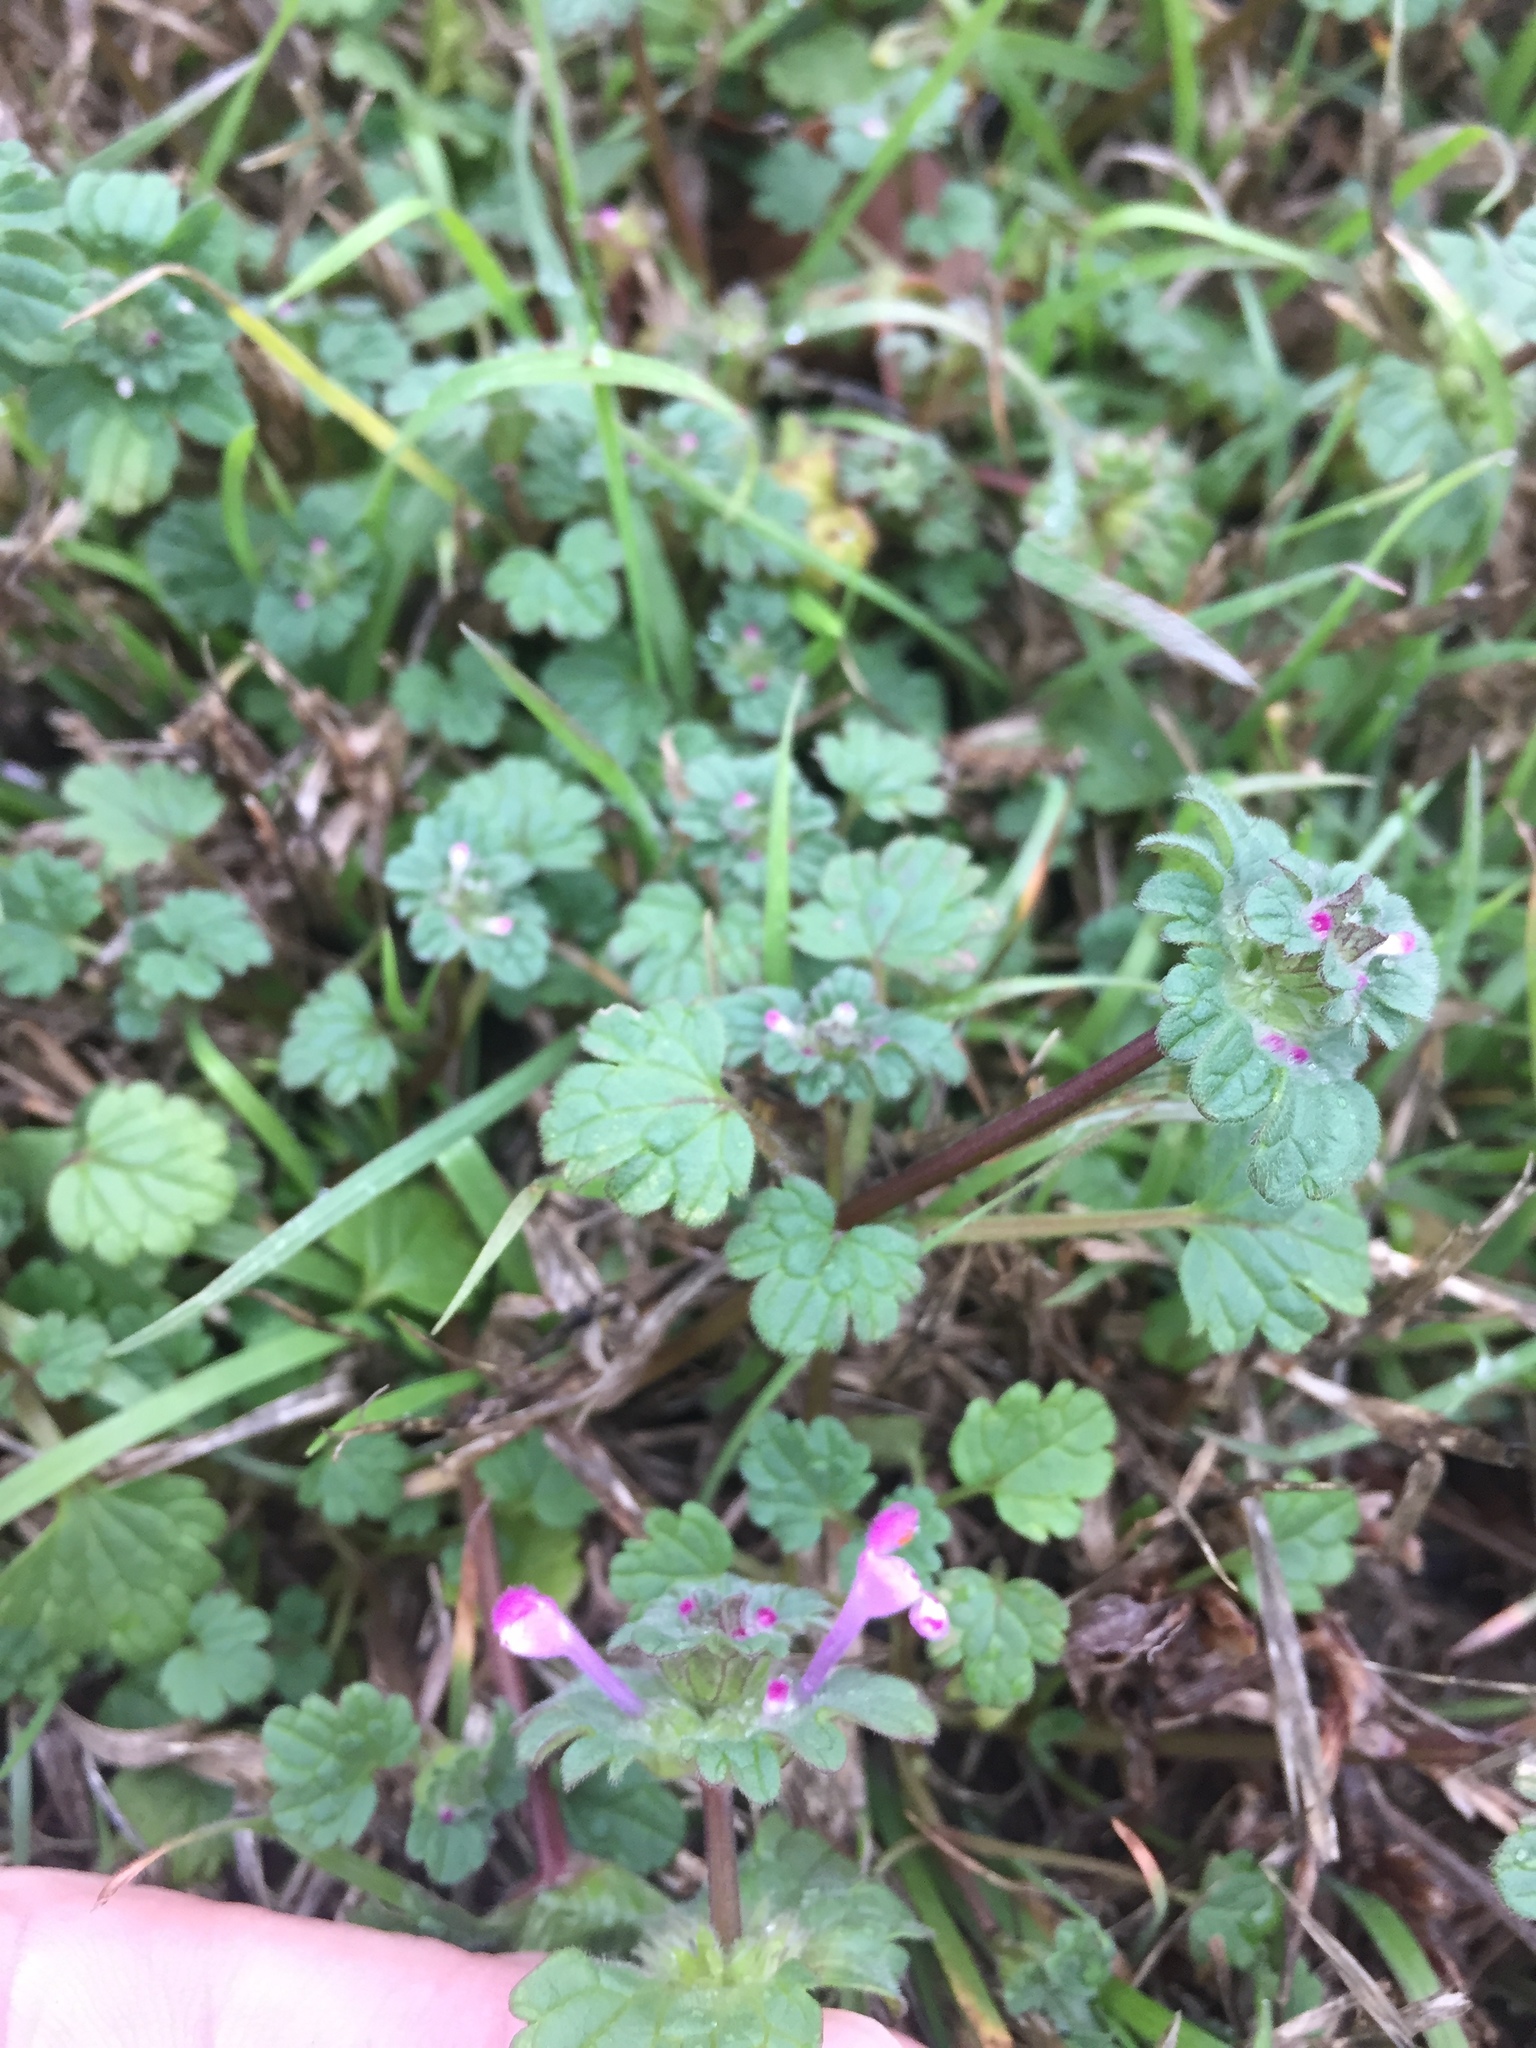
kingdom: Plantae
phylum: Tracheophyta
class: Magnoliopsida
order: Lamiales
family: Lamiaceae
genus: Lamium
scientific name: Lamium amplexicaule
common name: Henbit dead-nettle
